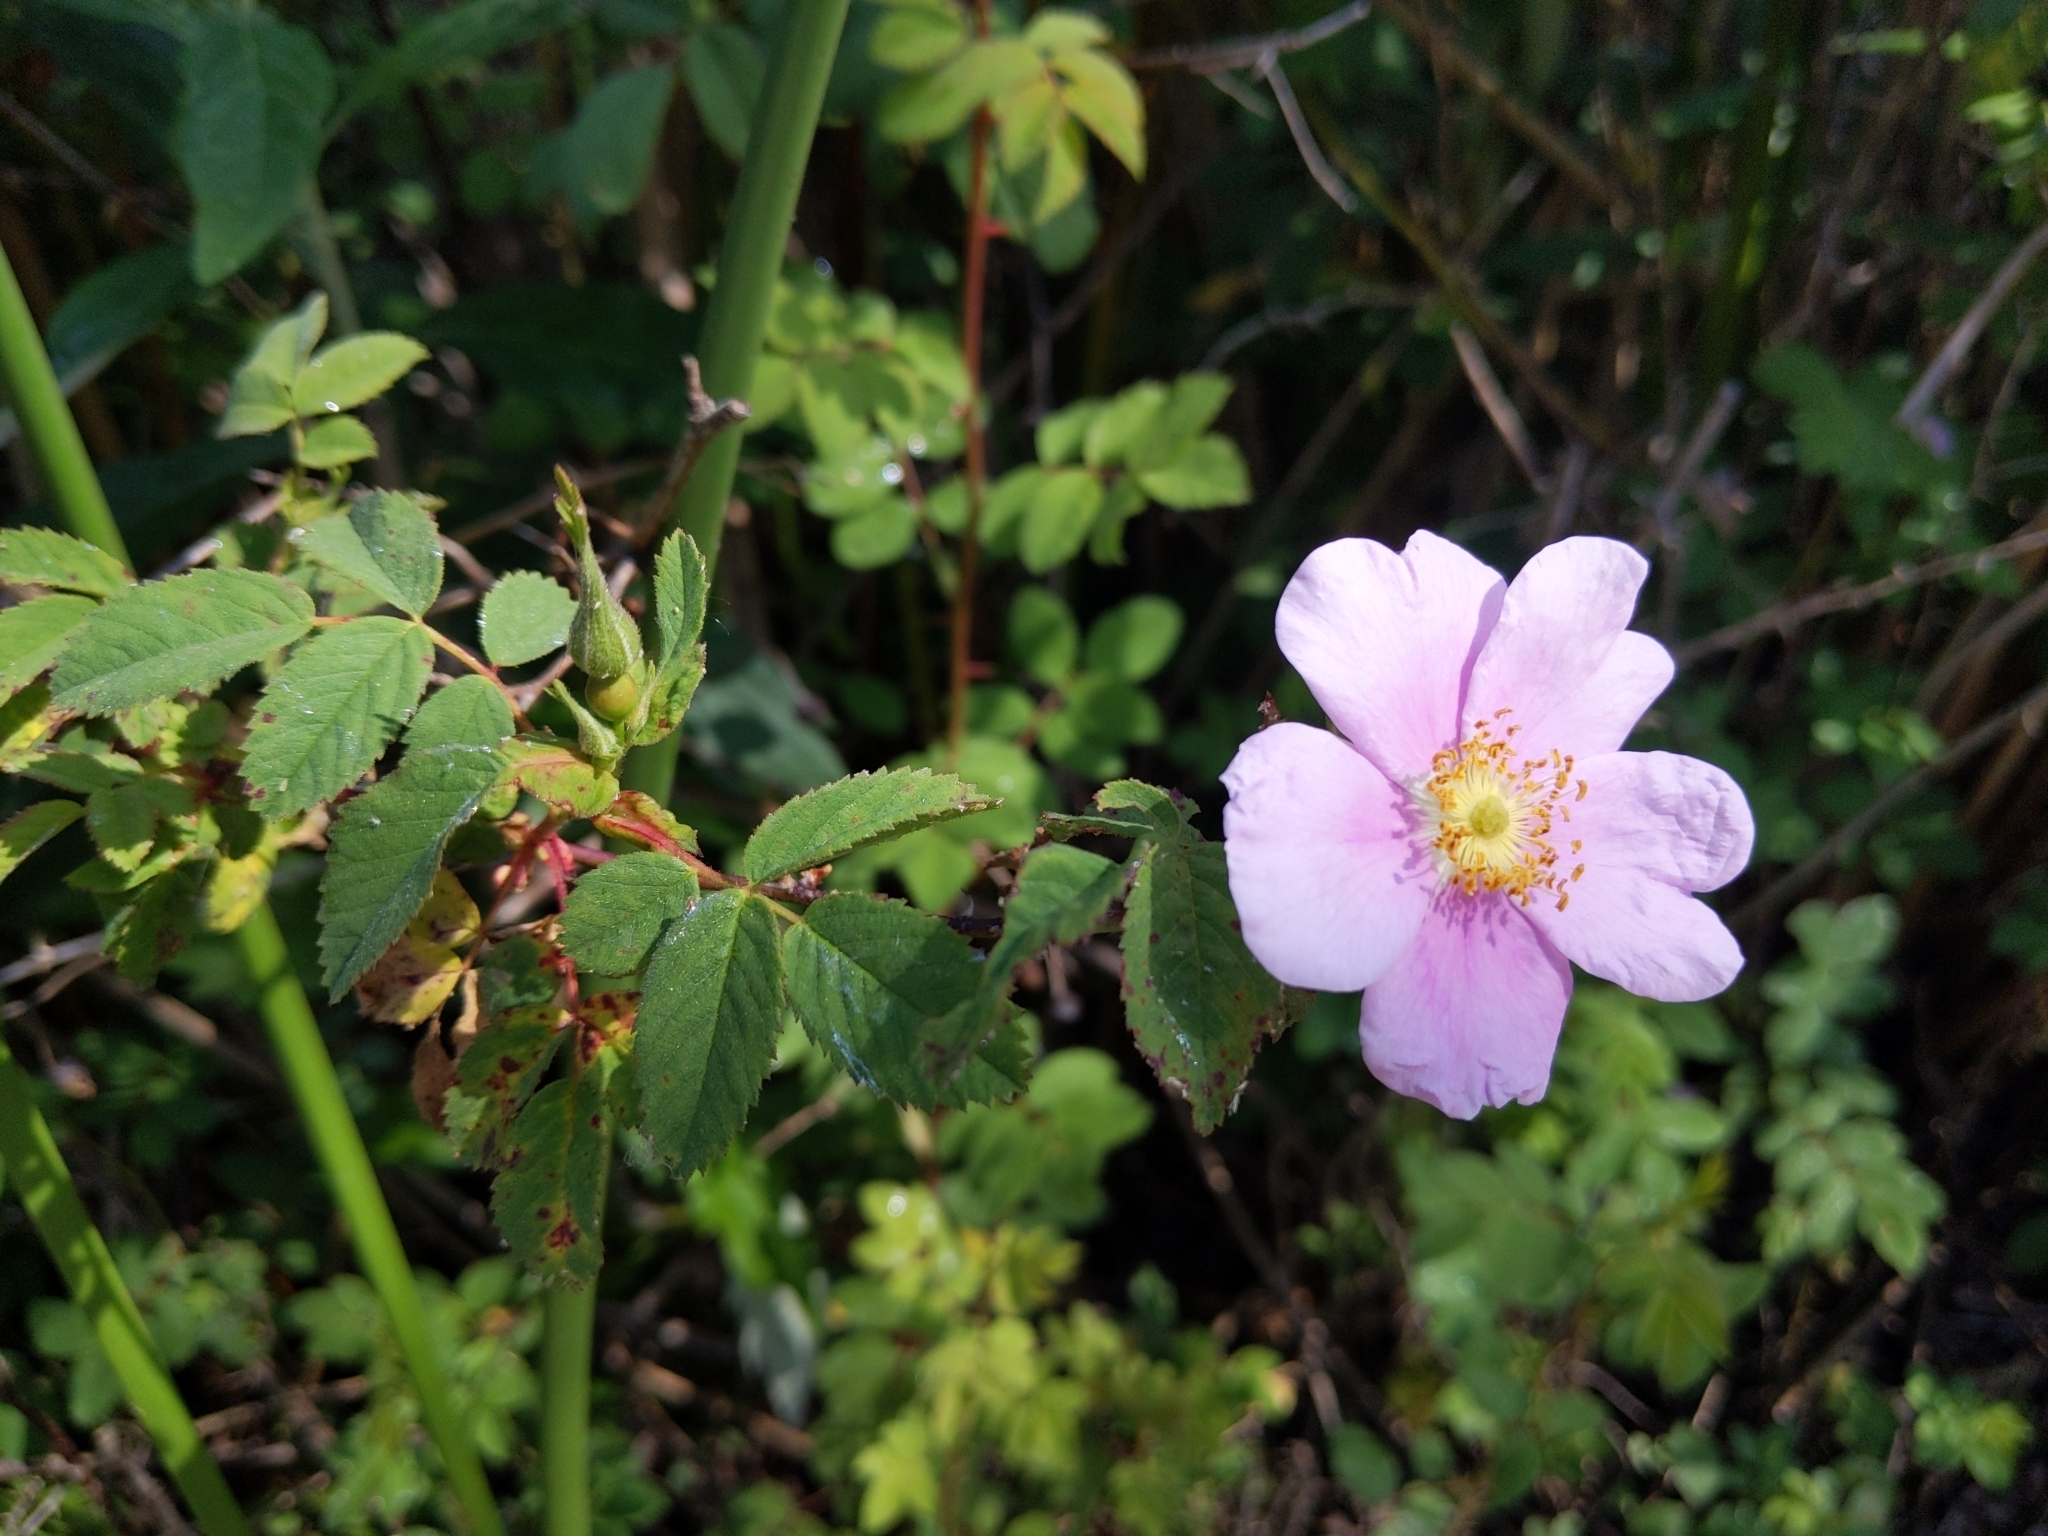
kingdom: Plantae
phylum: Tracheophyta
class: Magnoliopsida
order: Rosales
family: Rosaceae
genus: Rosa
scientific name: Rosa californica
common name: California rose
